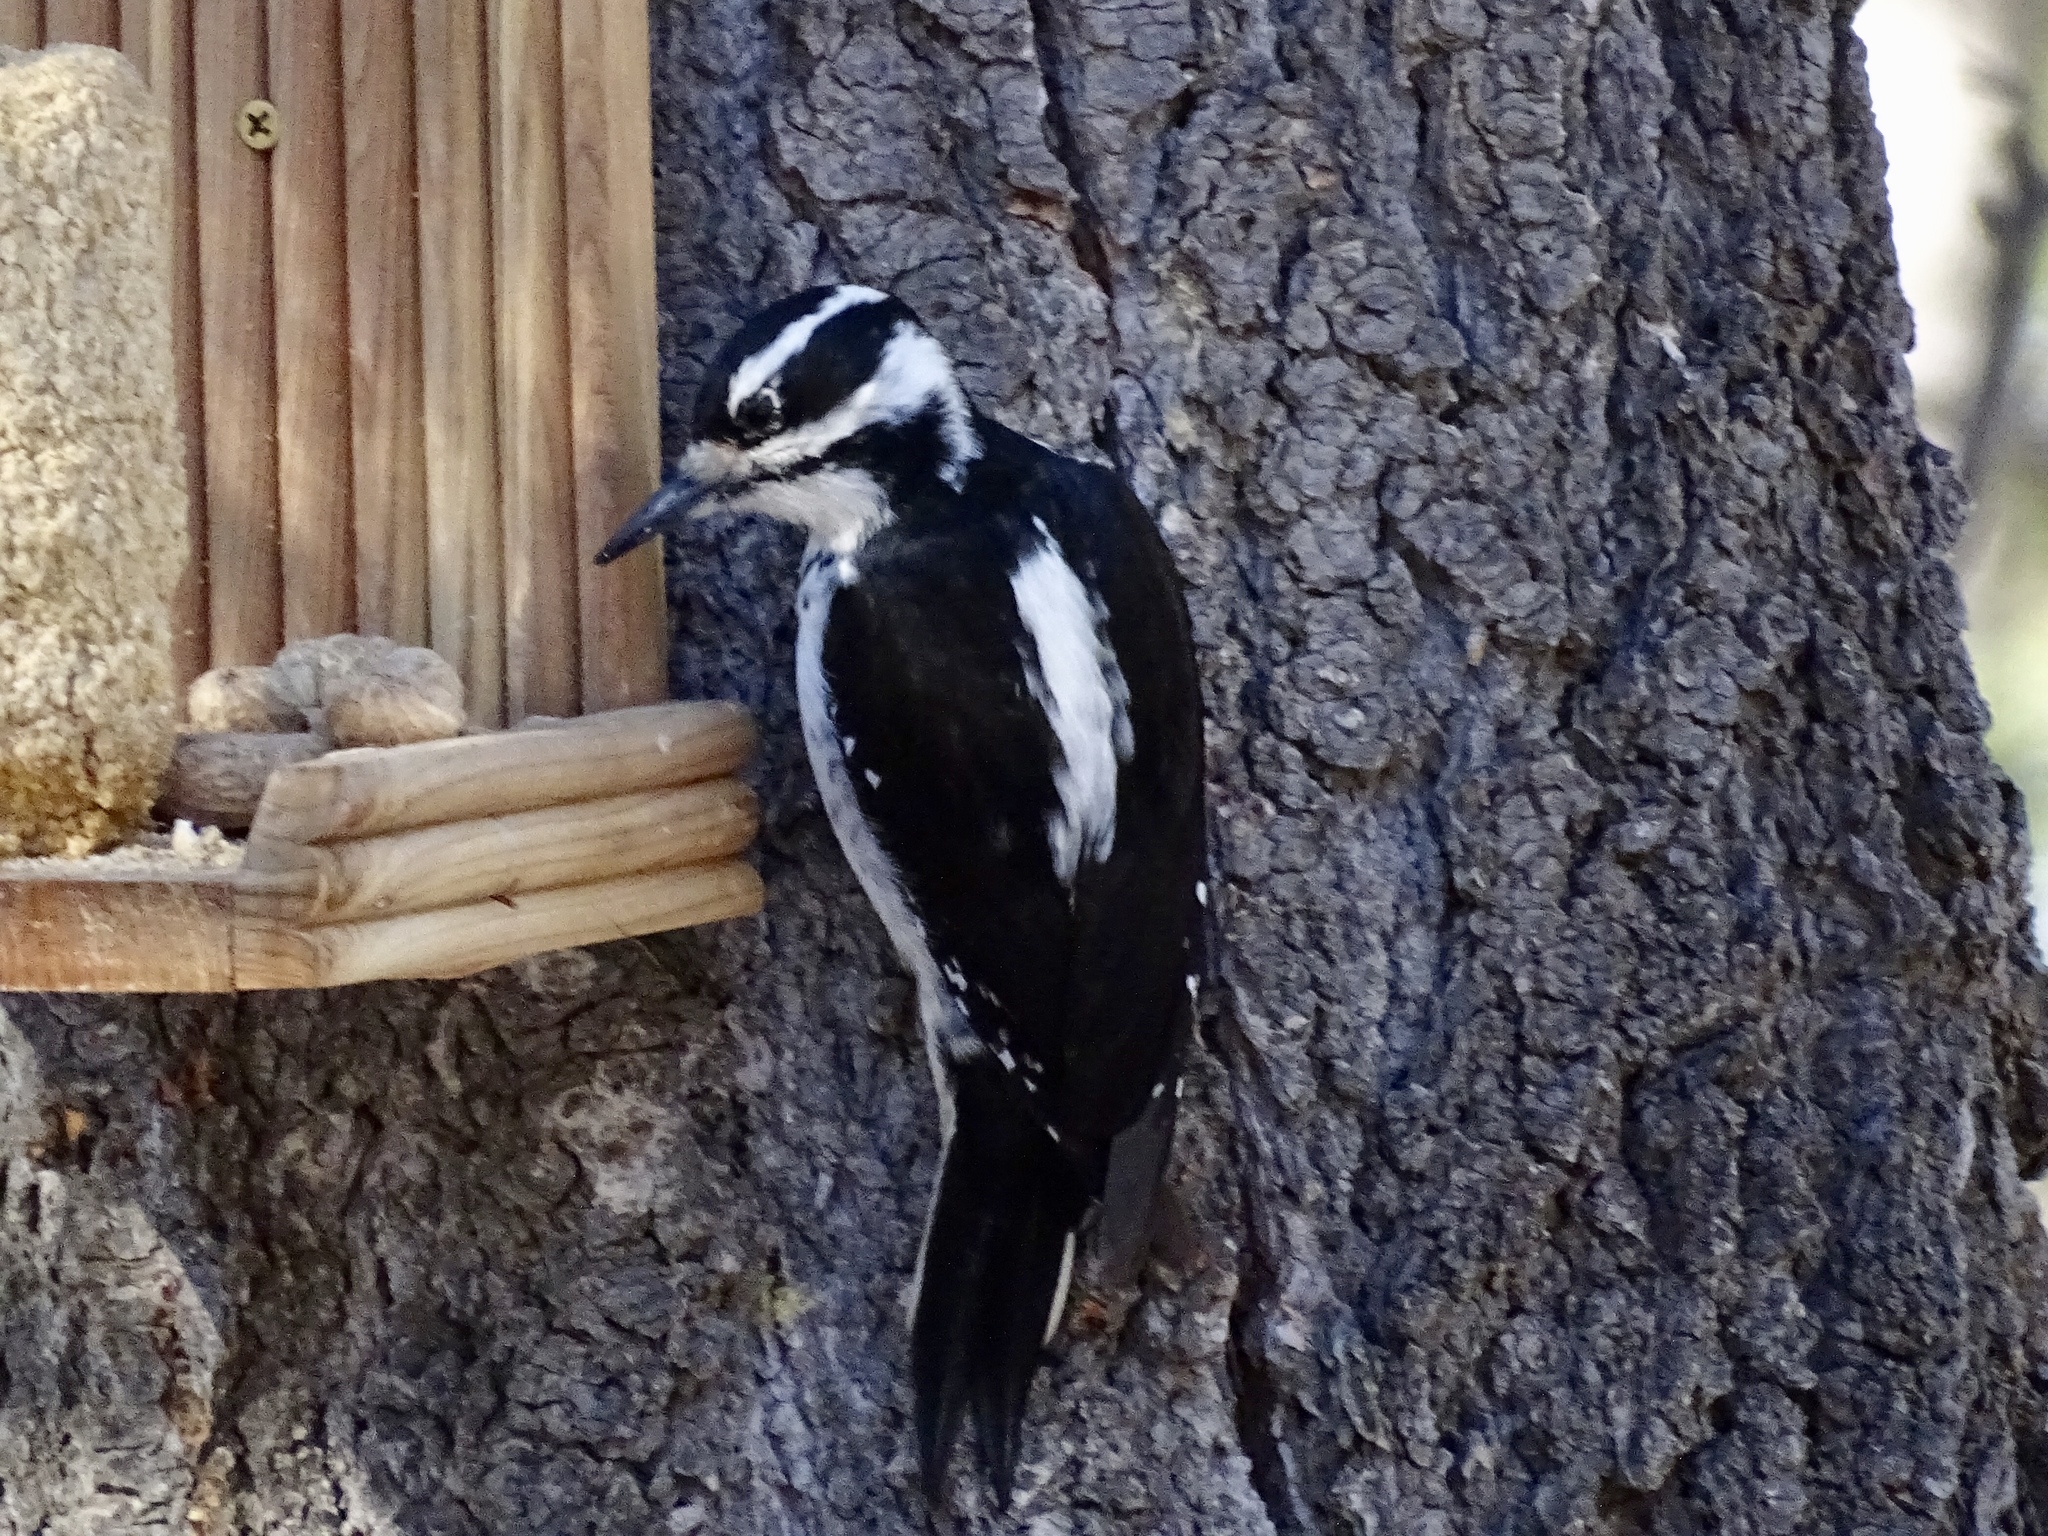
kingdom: Animalia
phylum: Chordata
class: Aves
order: Piciformes
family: Picidae
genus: Leuconotopicus
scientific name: Leuconotopicus villosus
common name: Hairy woodpecker
